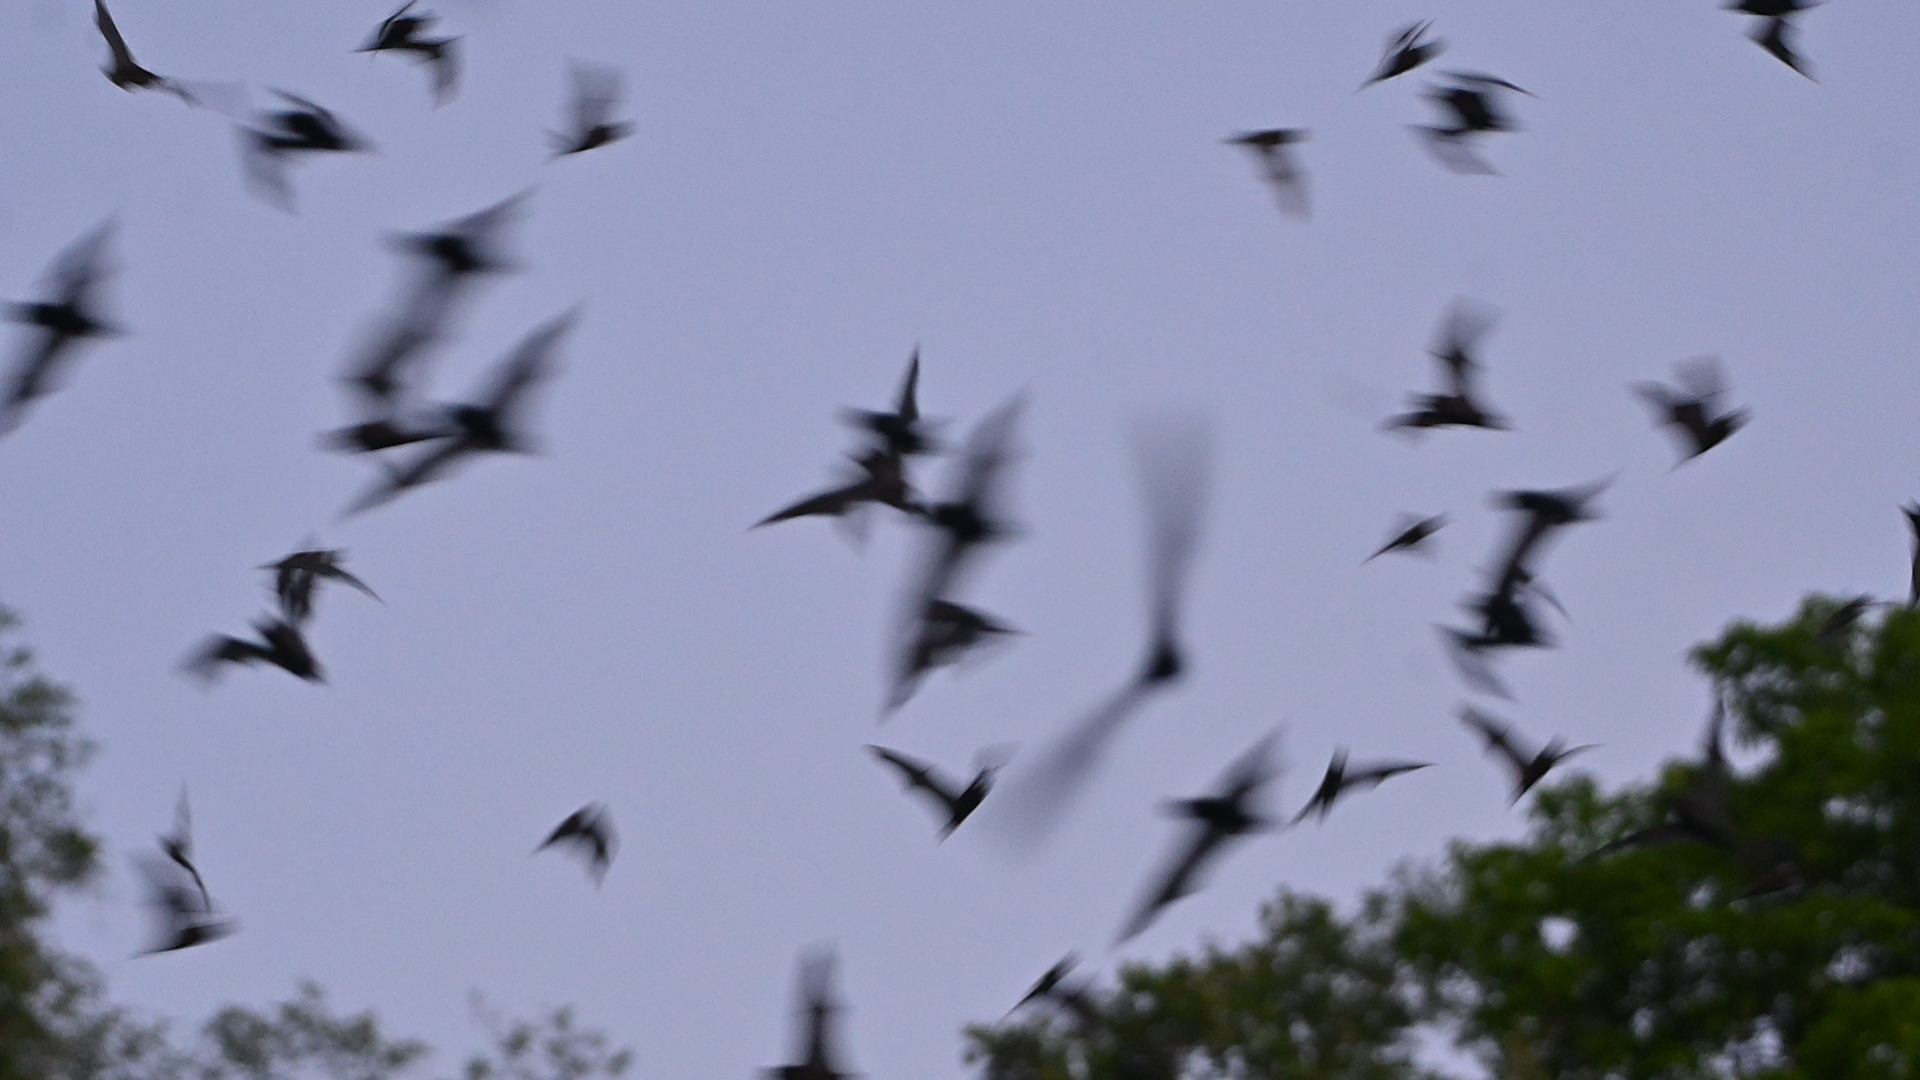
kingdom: Animalia
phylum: Chordata
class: Mammalia
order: Chiroptera
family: Molossidae
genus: Nyctinomops
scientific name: Nyctinomops laticaudatus
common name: Broad-eared free-tailed bat
